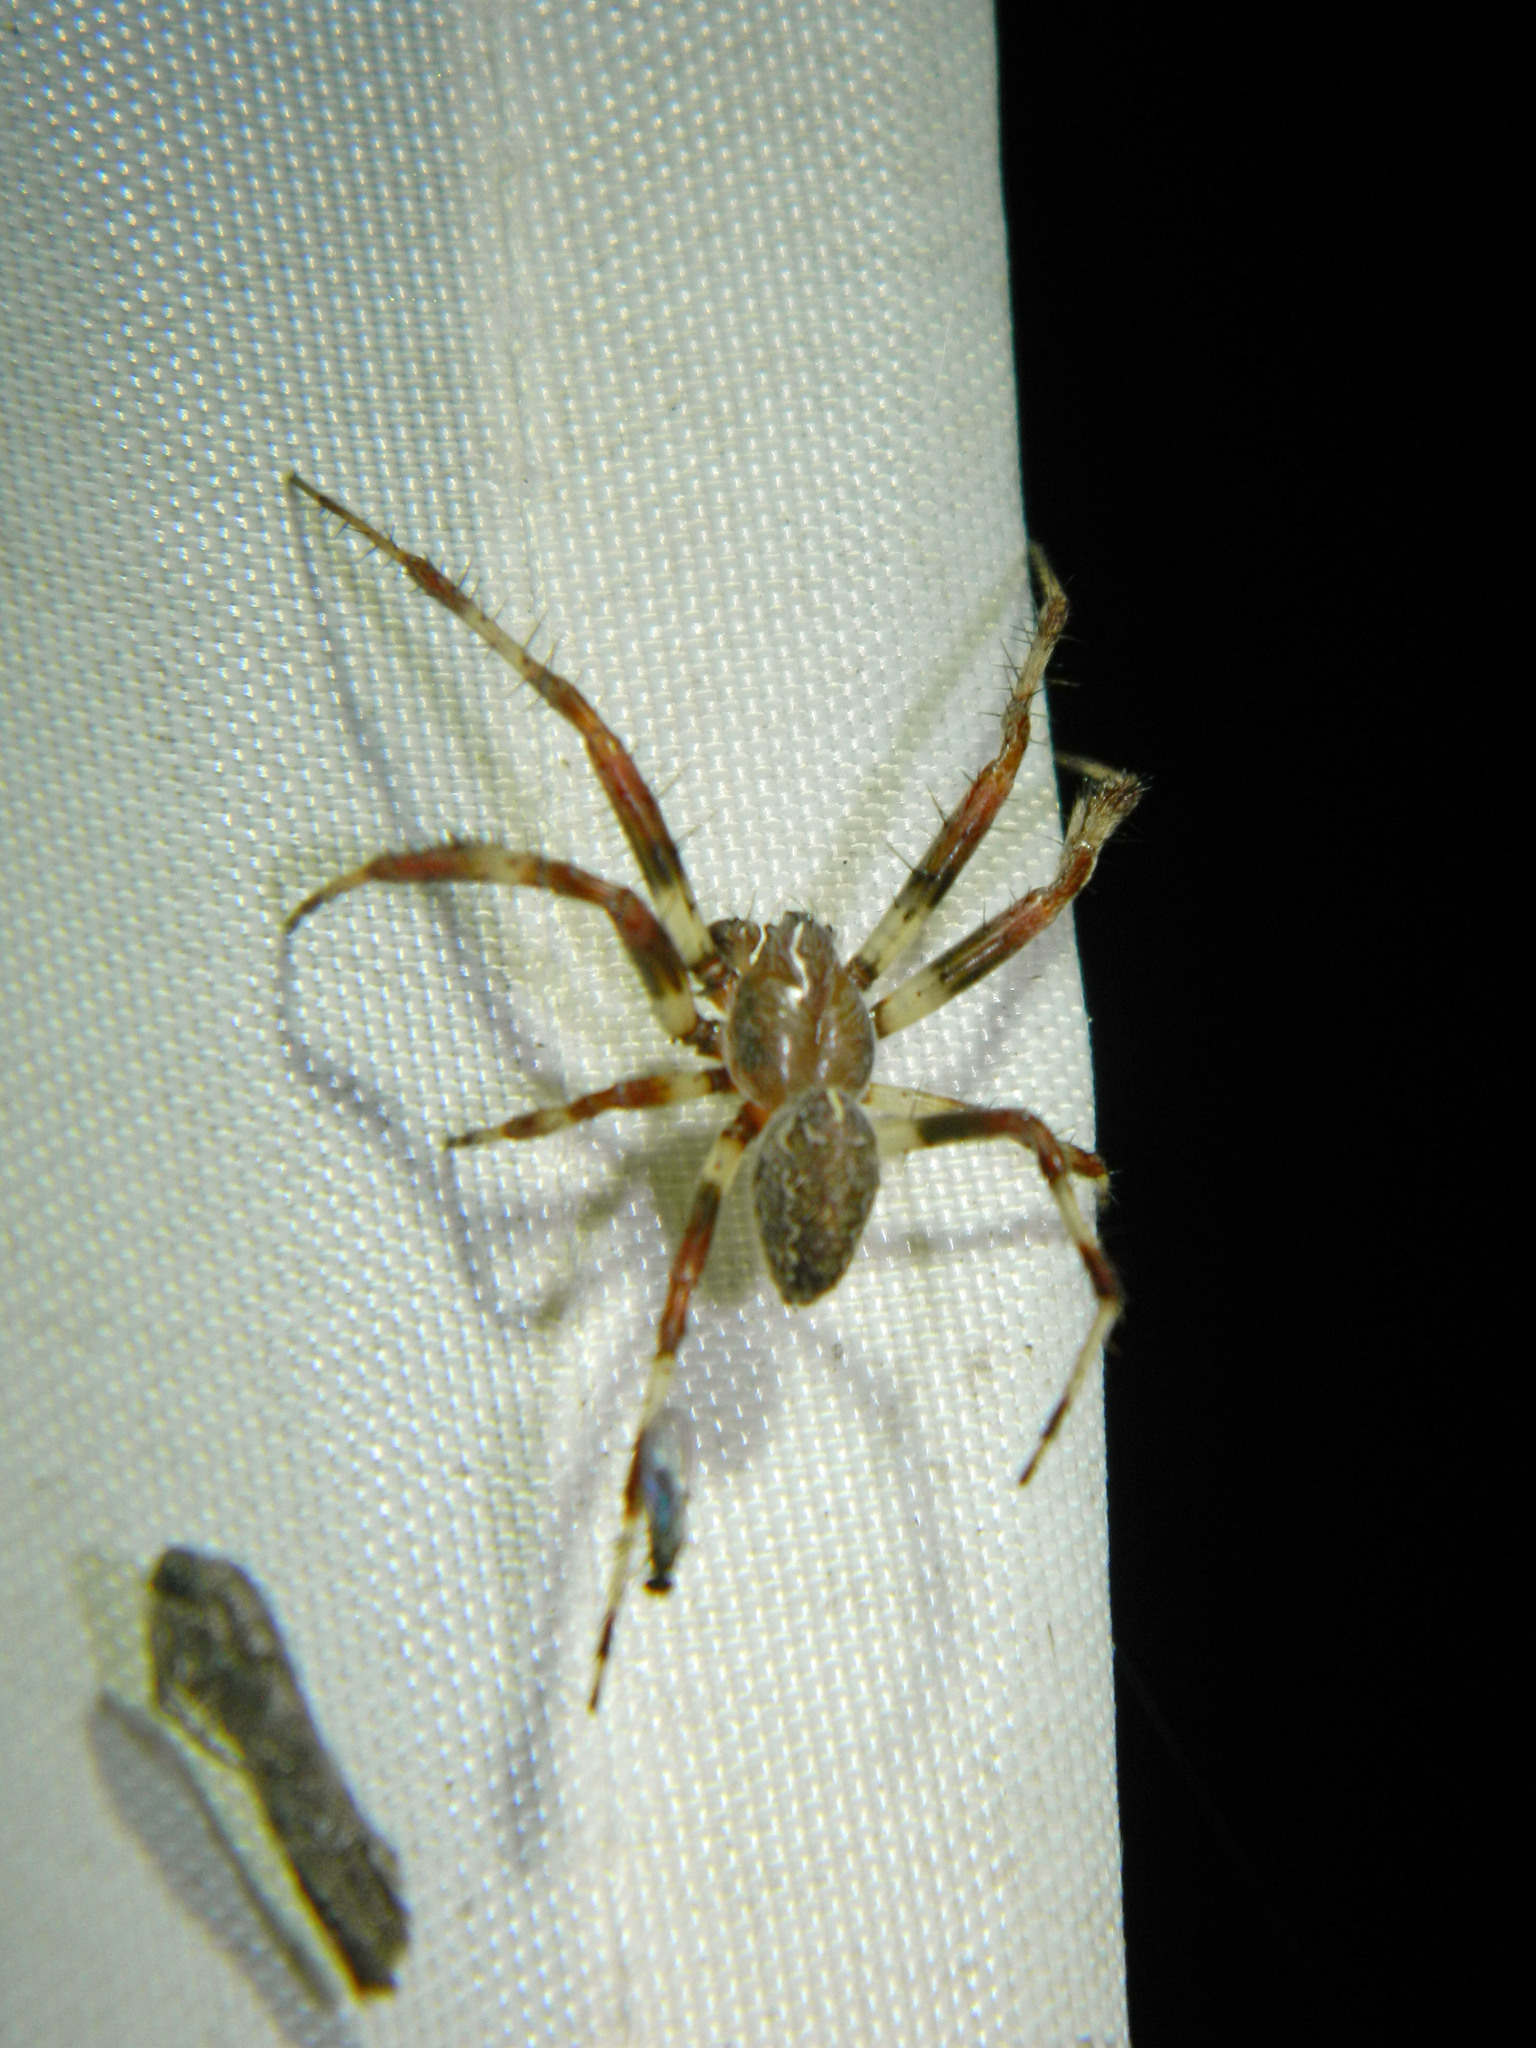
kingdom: Animalia
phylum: Arthropoda
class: Arachnida
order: Araneae
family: Araneidae
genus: Araneus
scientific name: Araneus marmoreus
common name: Marbled orbweaver
